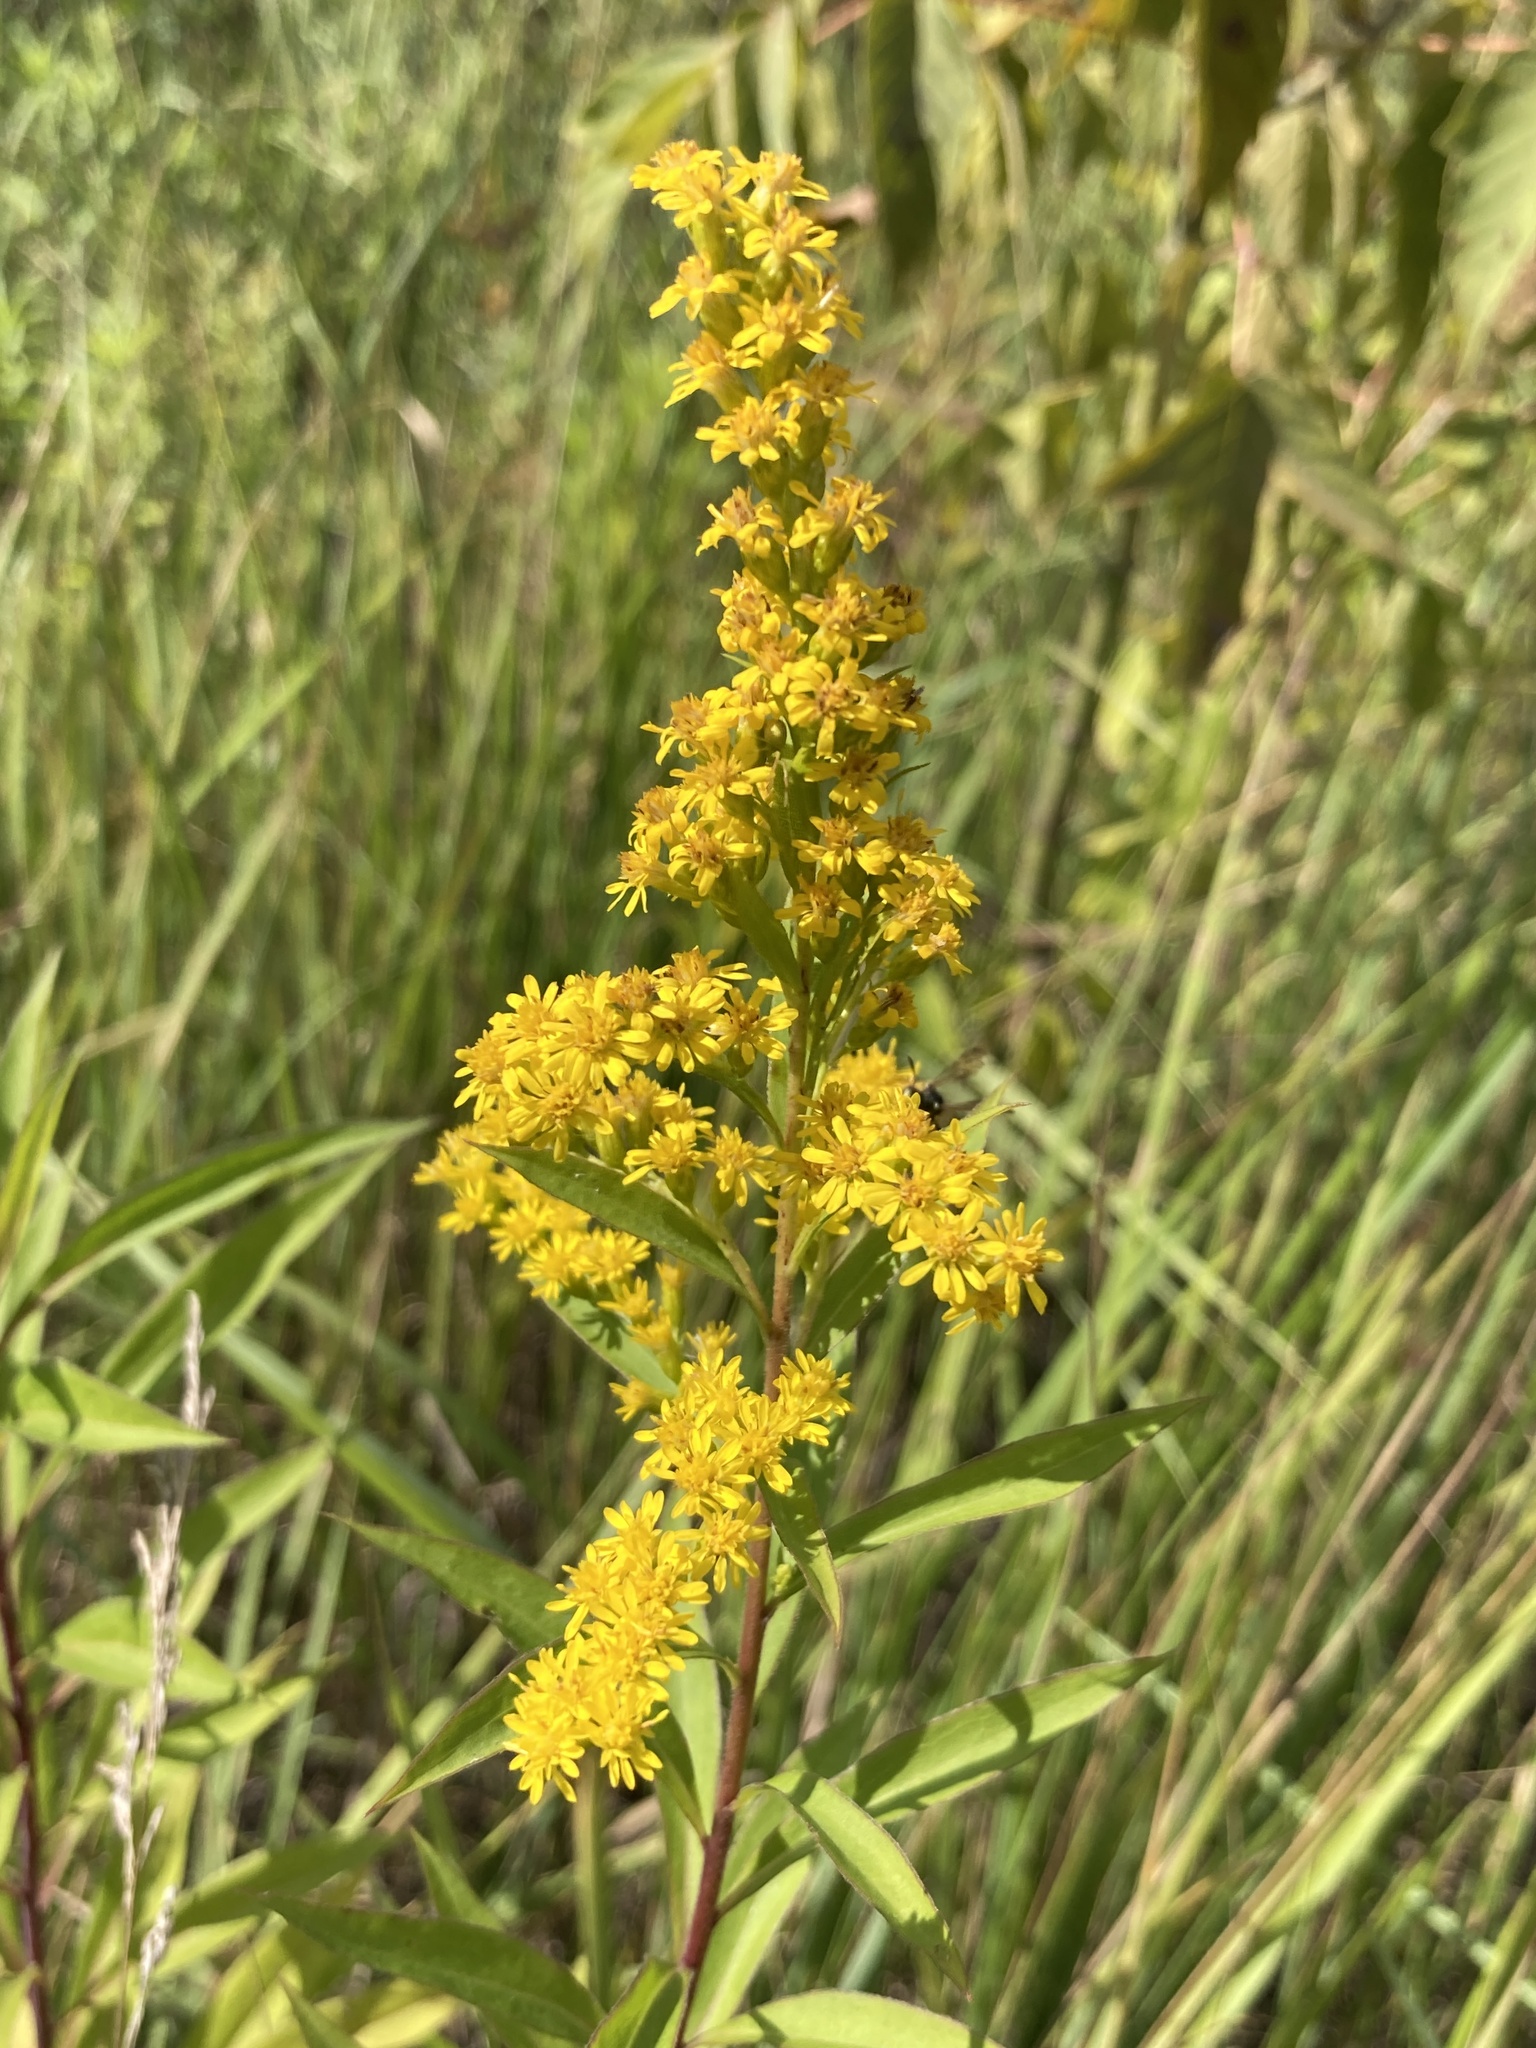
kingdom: Plantae
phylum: Tracheophyta
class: Magnoliopsida
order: Asterales
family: Asteraceae
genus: Solidago
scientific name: Solidago gigantea
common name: Giant goldenrod
